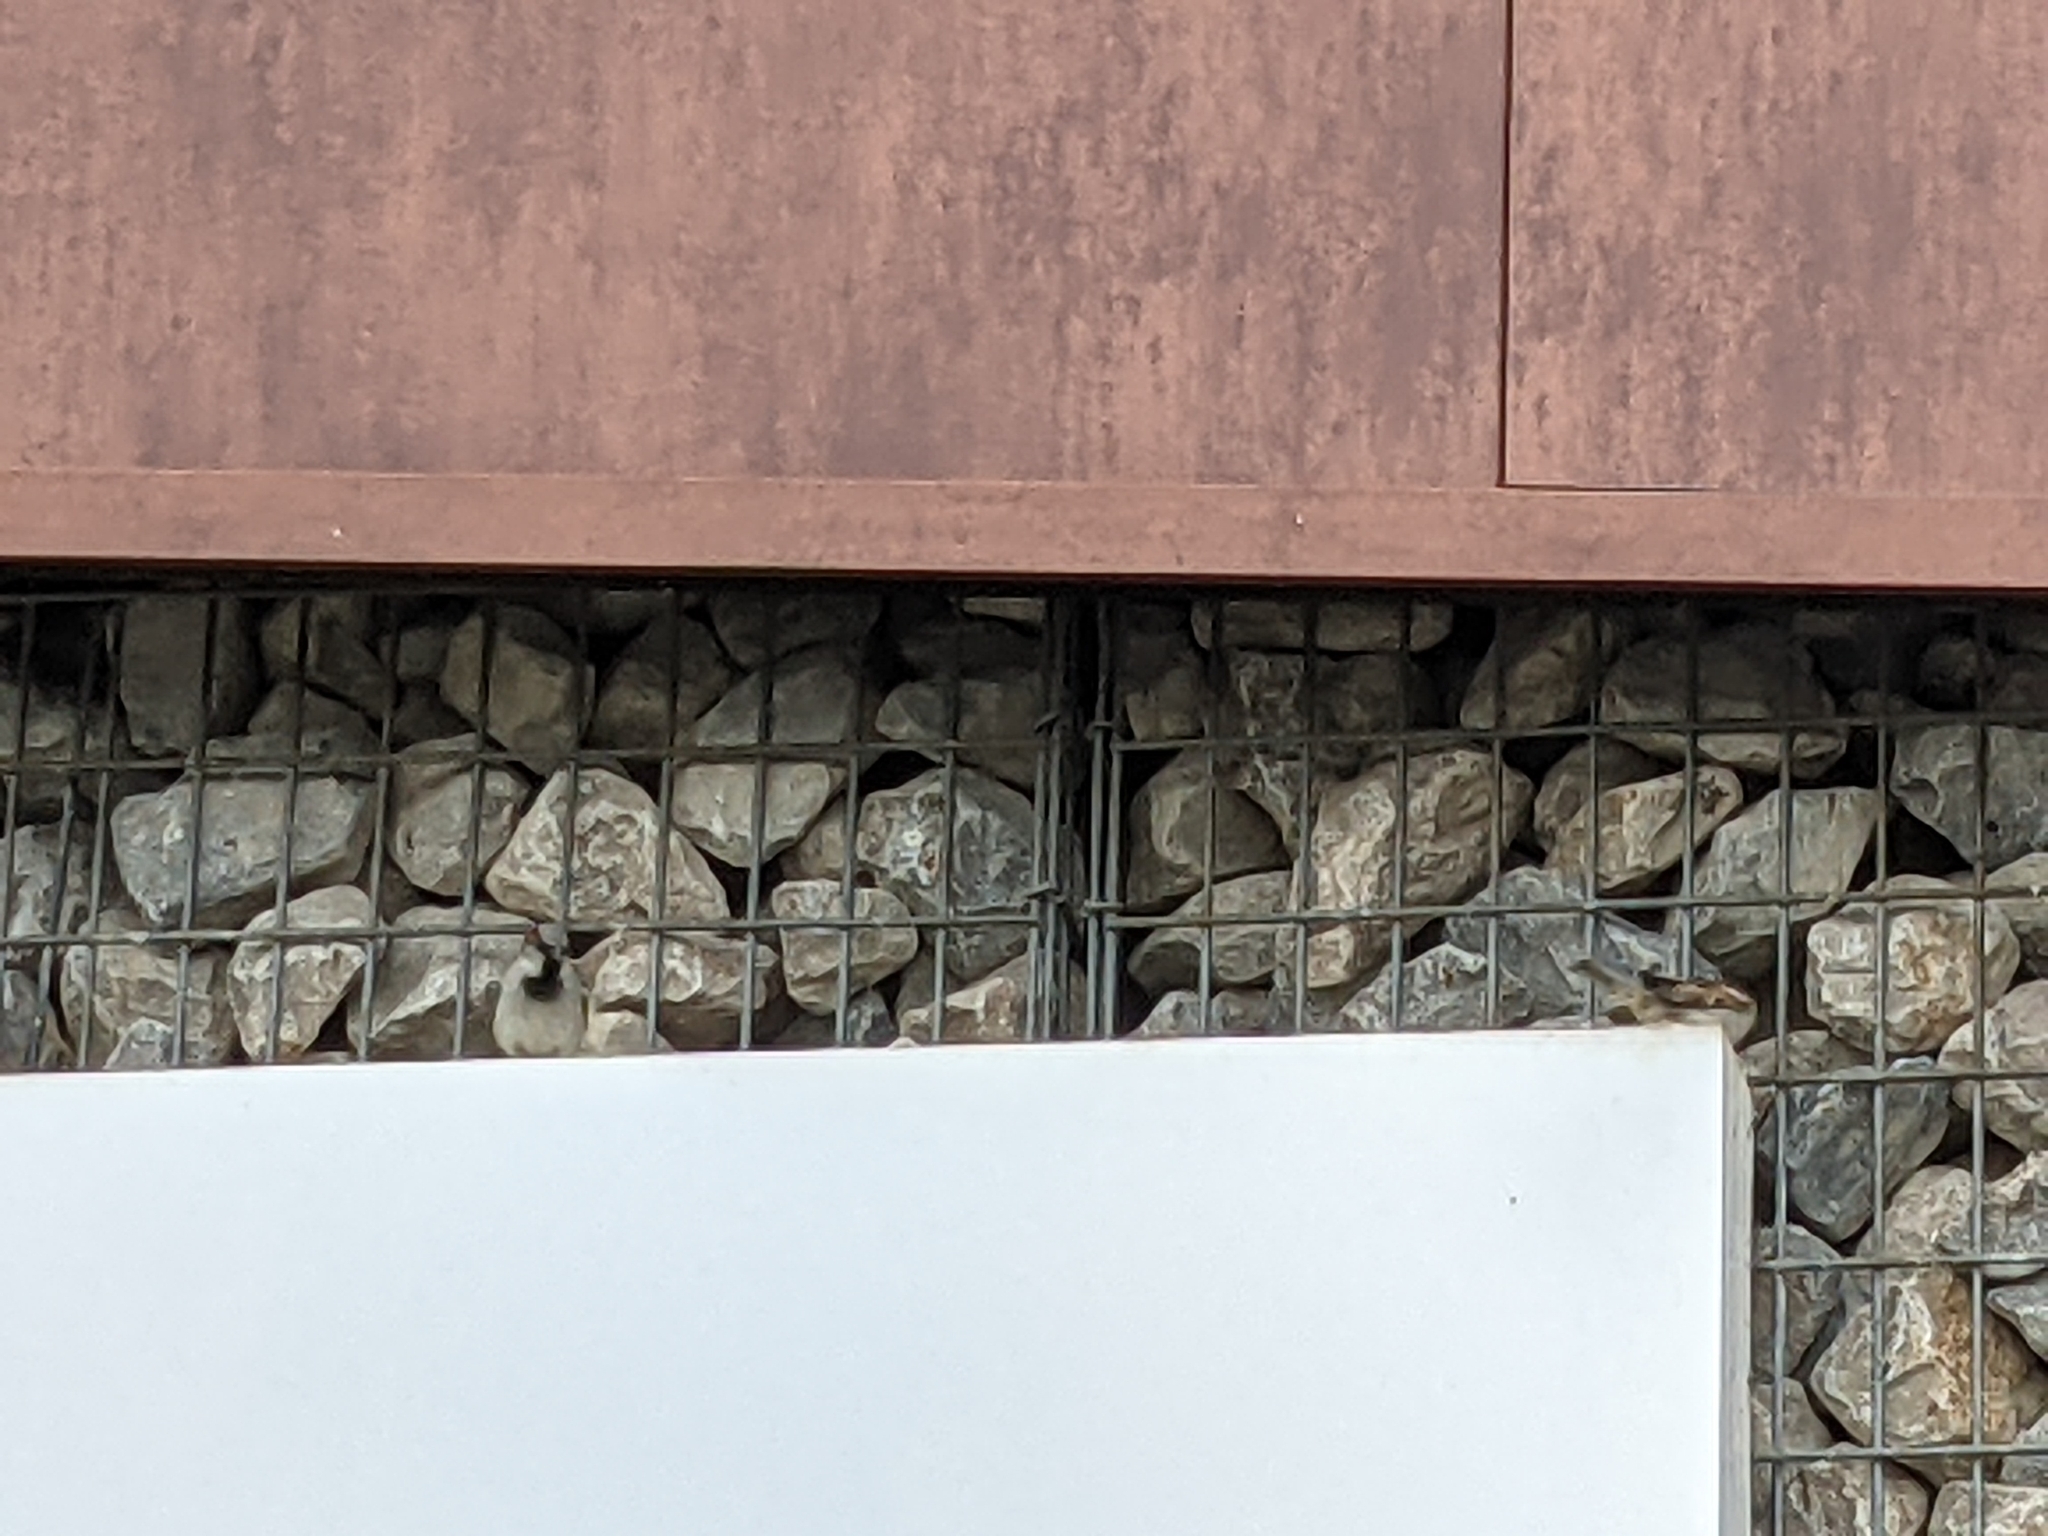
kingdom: Animalia
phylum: Chordata
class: Aves
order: Passeriformes
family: Passeridae
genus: Passer
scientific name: Passer domesticus
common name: House sparrow
